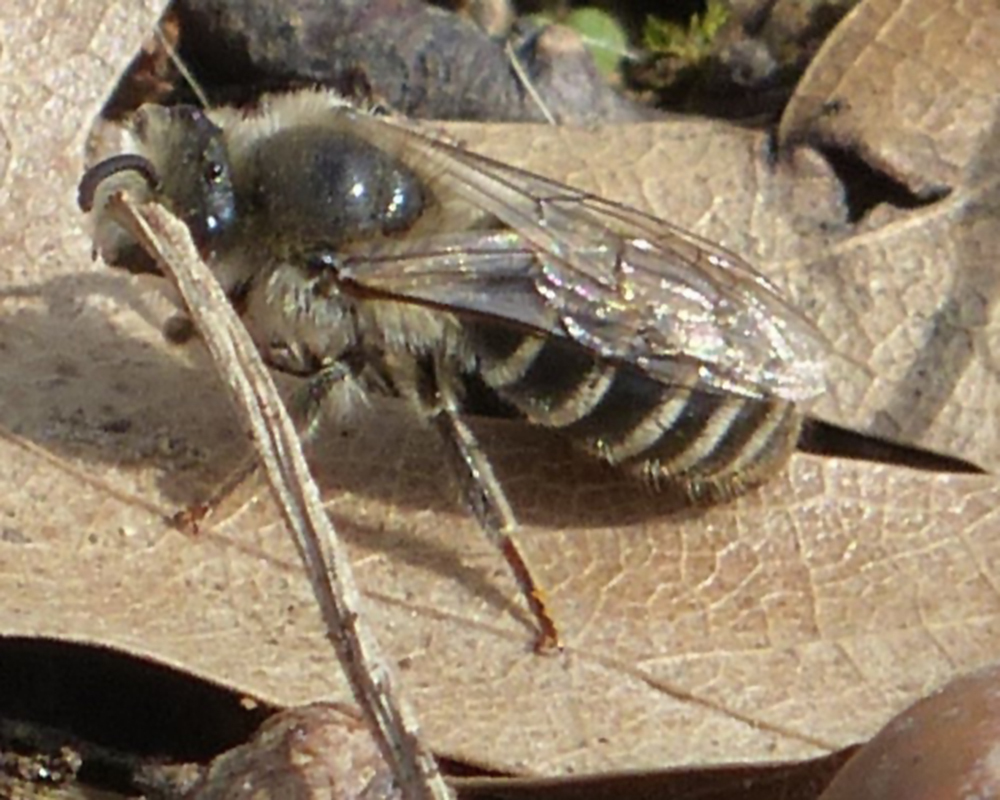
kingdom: Animalia
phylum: Arthropoda
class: Insecta
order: Hymenoptera
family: Colletidae
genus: Colletes
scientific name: Colletes inaequalis
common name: Unequal cellophane bee
